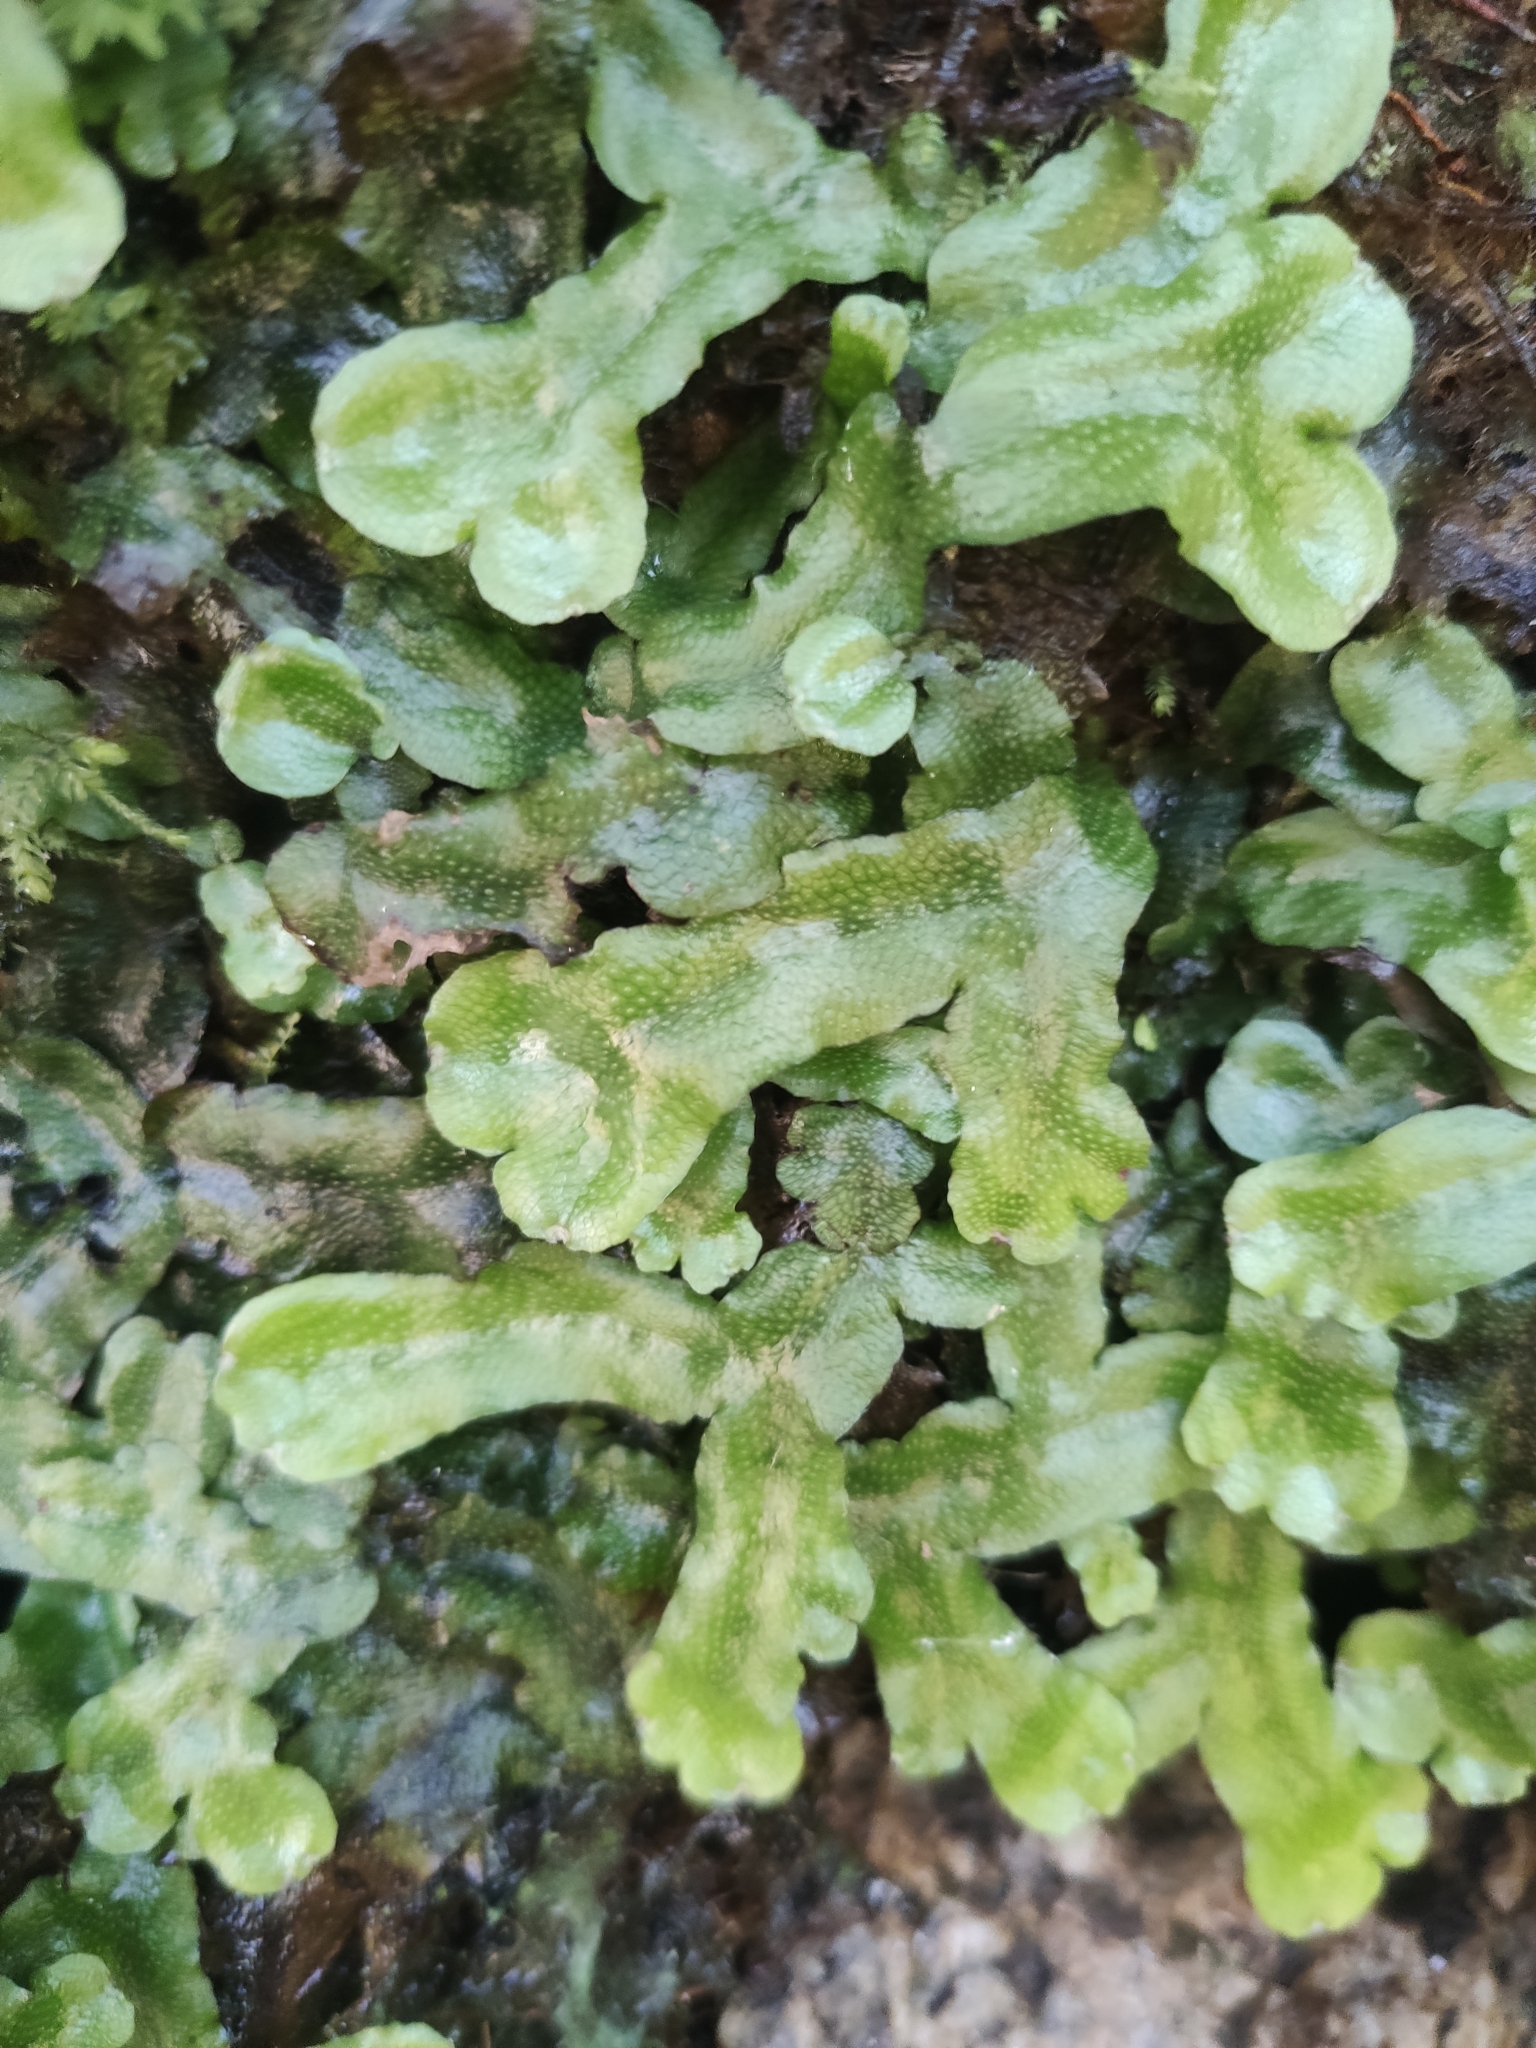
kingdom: Plantae
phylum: Marchantiophyta
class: Marchantiopsida
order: Marchantiales
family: Conocephalaceae
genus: Conocephalum
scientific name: Conocephalum conicum
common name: Great scented liverwort
